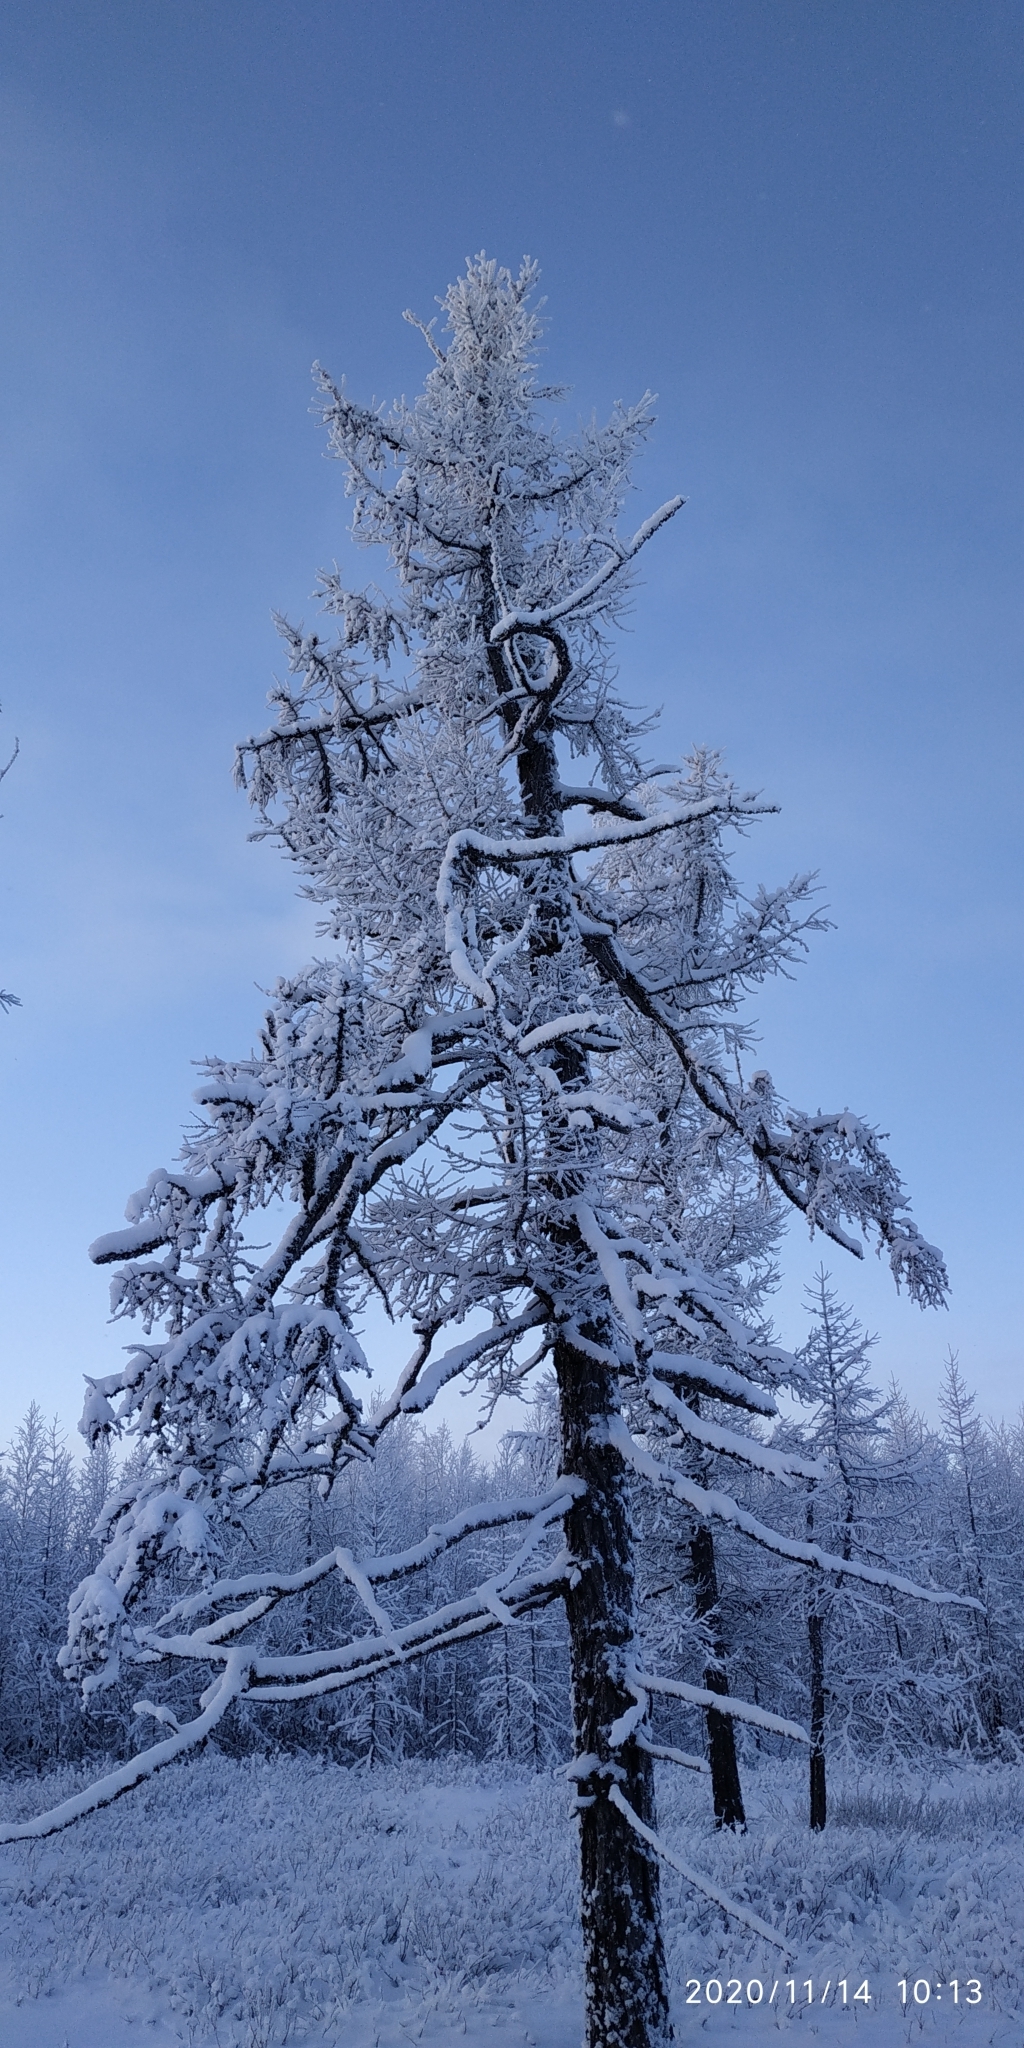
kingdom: Plantae
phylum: Tracheophyta
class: Pinopsida
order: Pinales
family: Pinaceae
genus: Larix
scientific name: Larix sibirica
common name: Siberian larch
